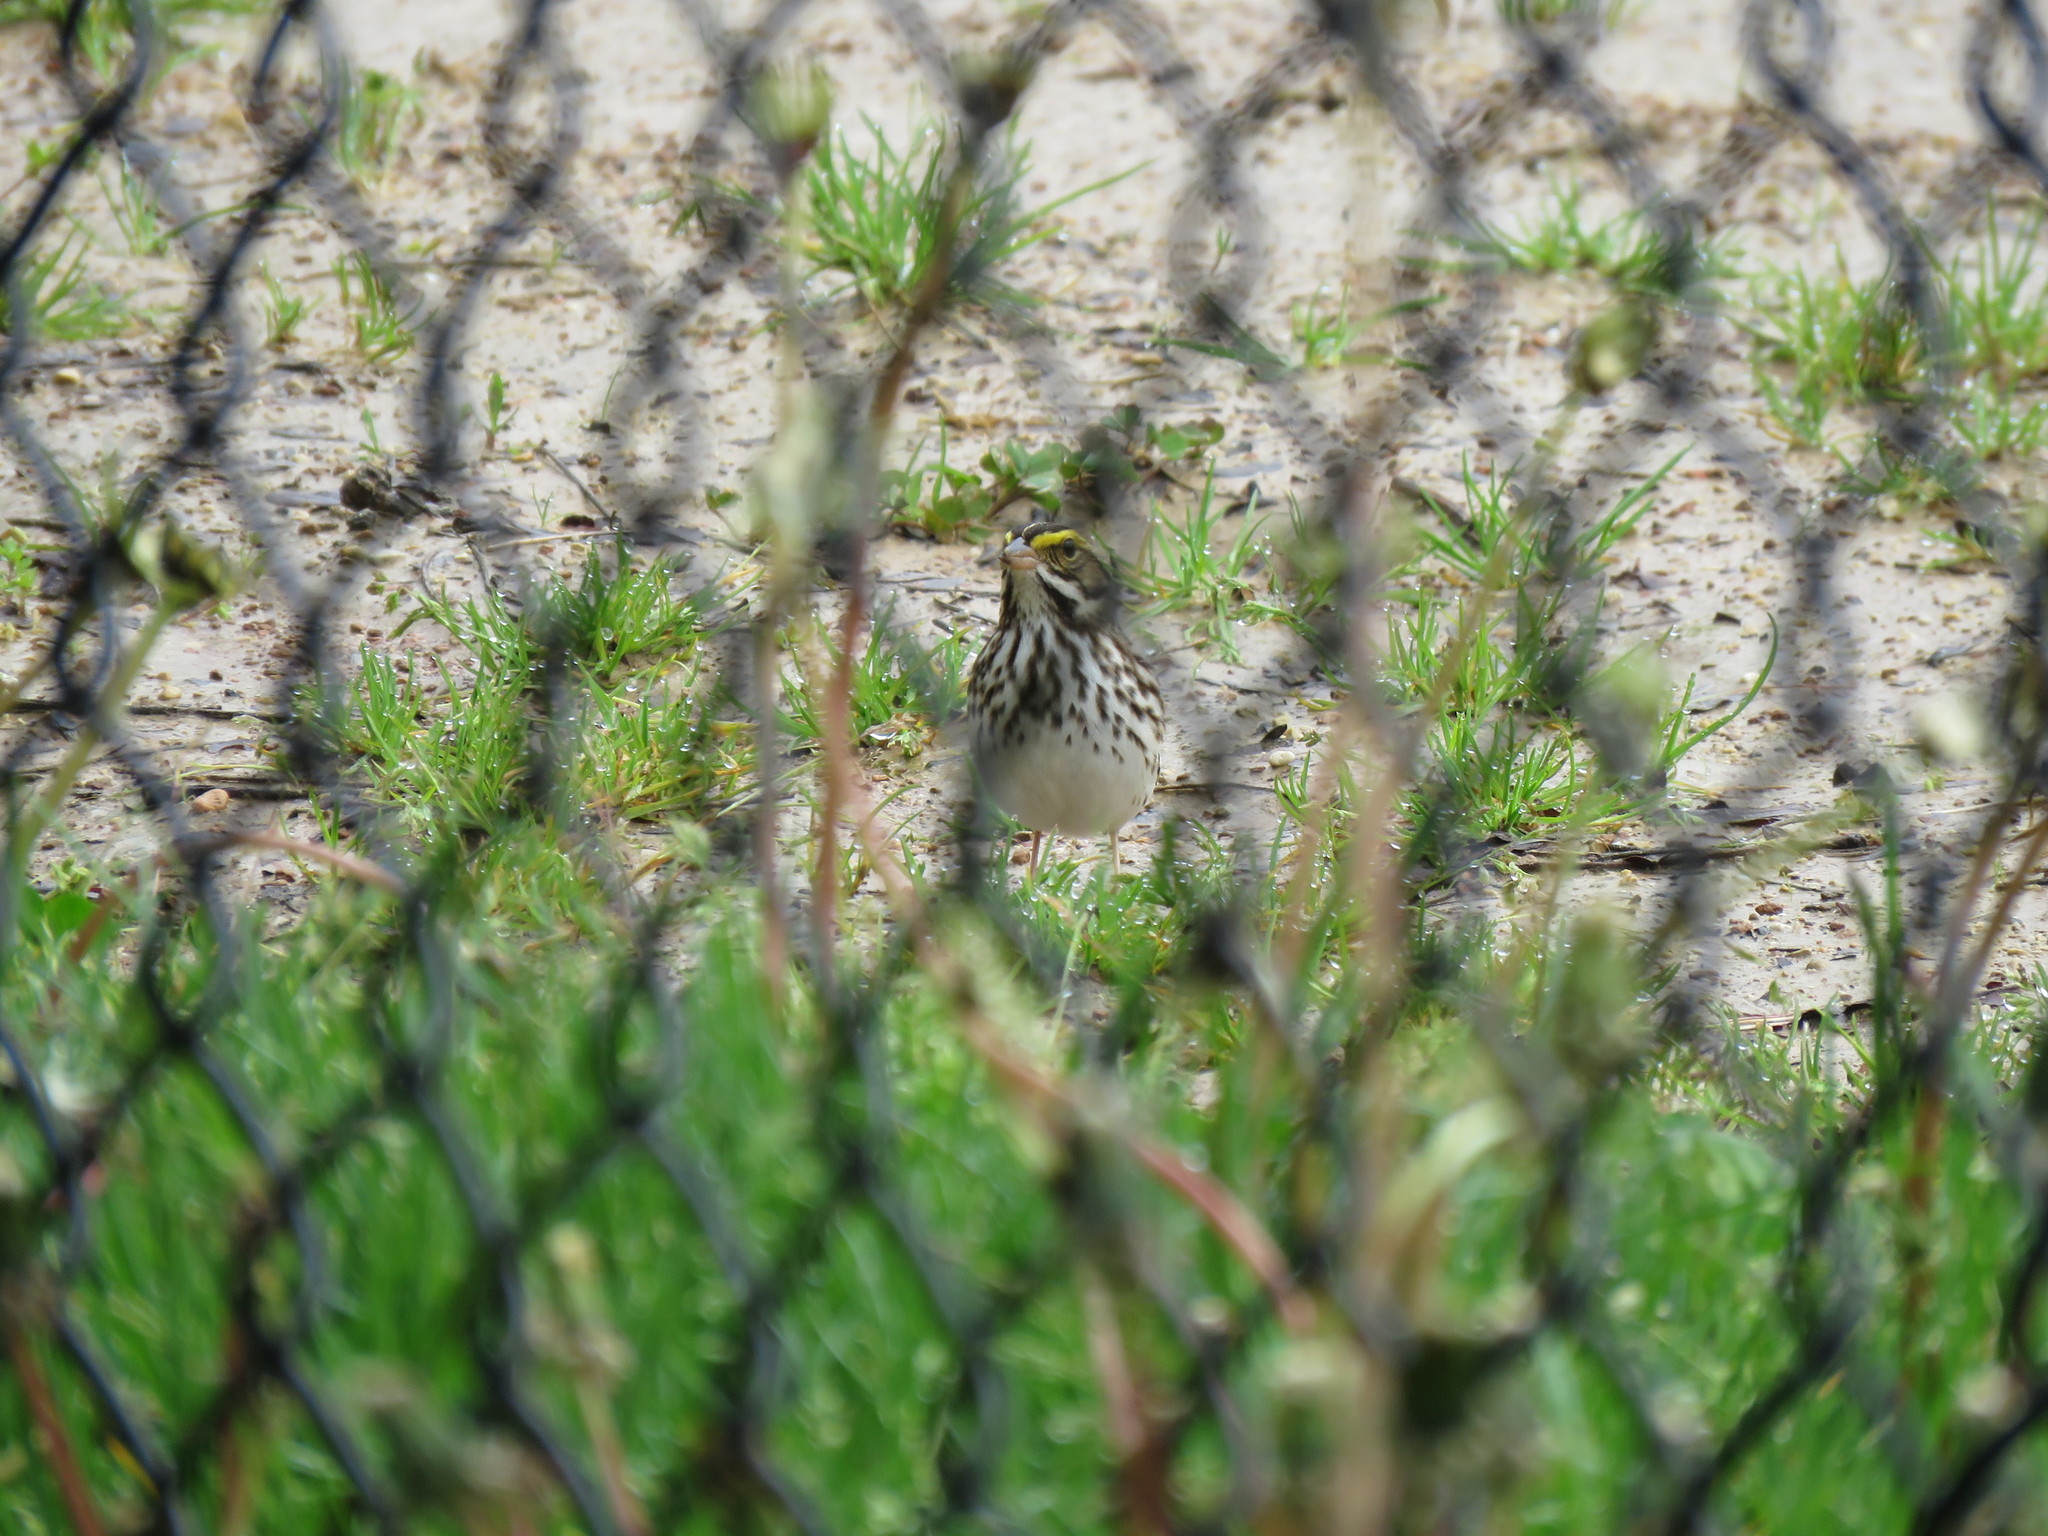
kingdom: Animalia
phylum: Chordata
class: Aves
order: Passeriformes
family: Passerellidae
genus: Passerculus
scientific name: Passerculus sandwichensis
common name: Savannah sparrow
